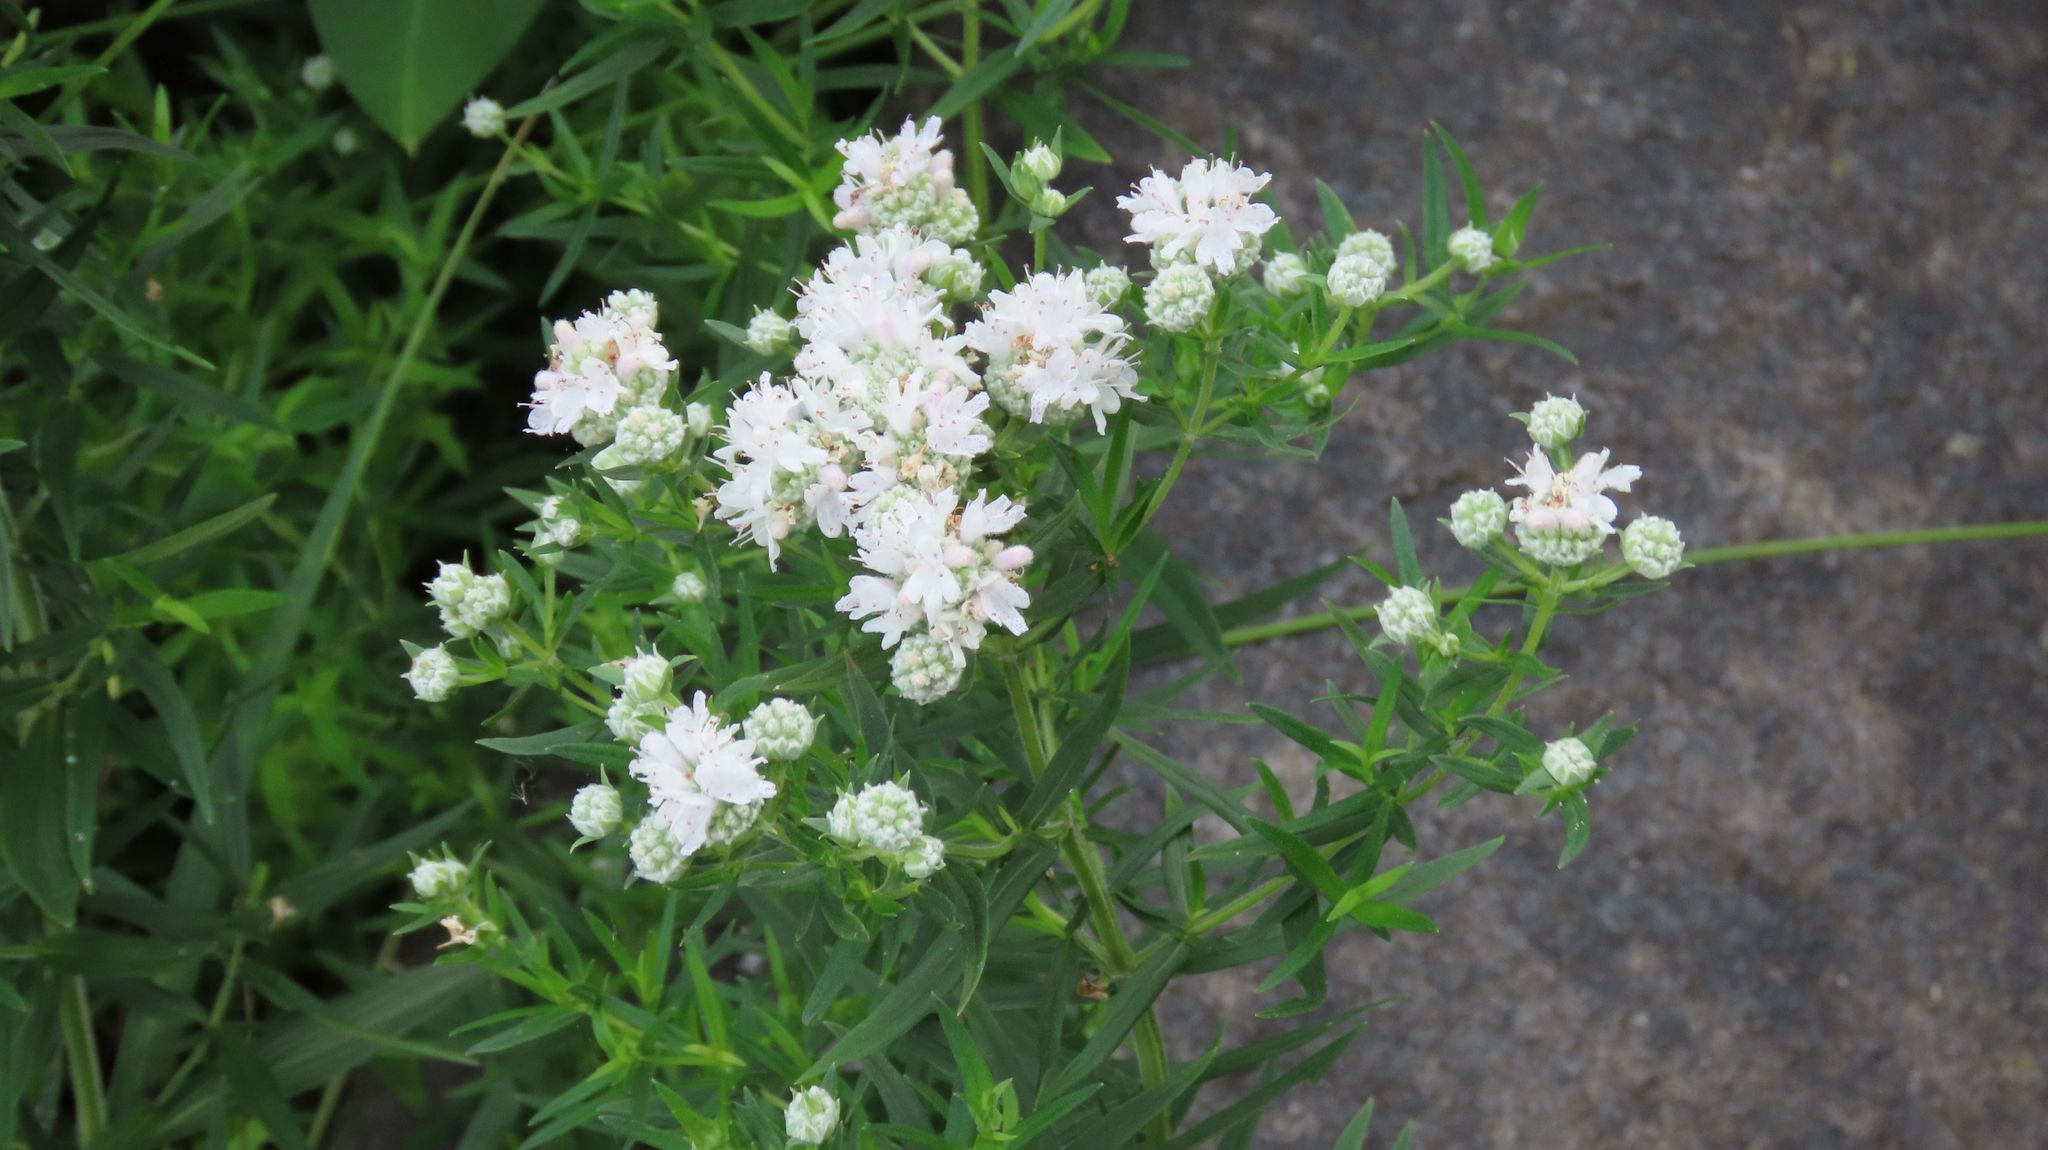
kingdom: Plantae
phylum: Tracheophyta
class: Magnoliopsida
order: Lamiales
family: Lamiaceae
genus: Pycnanthemum
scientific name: Pycnanthemum virginianum
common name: Virginia mountain-mint
